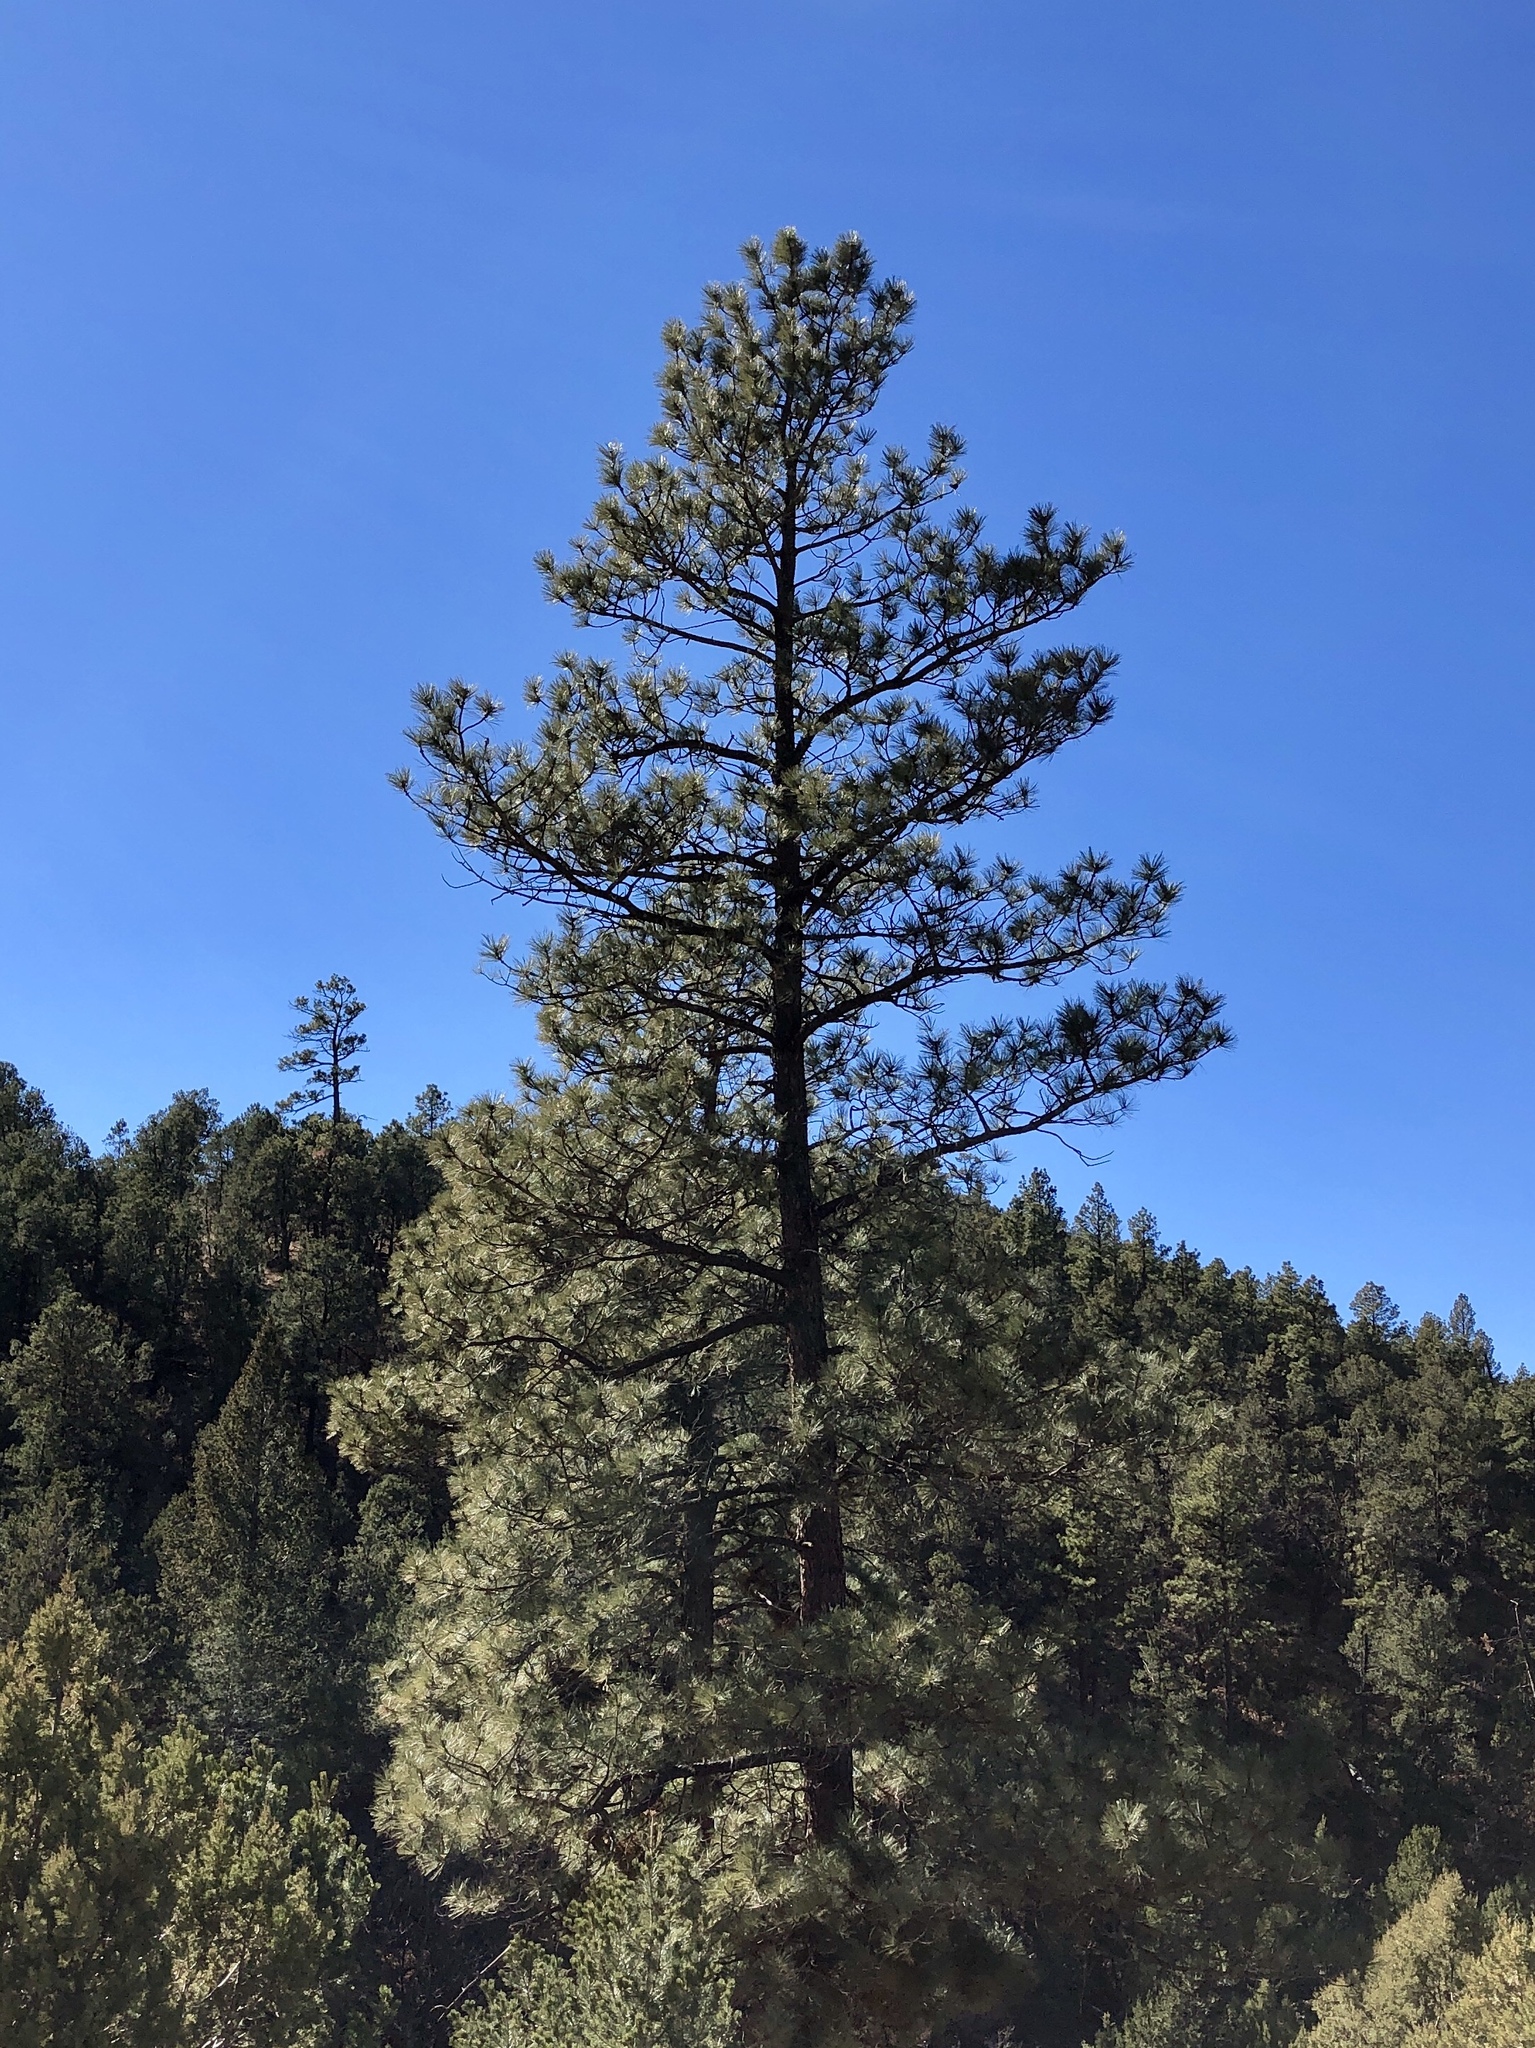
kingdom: Plantae
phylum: Tracheophyta
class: Pinopsida
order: Pinales
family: Pinaceae
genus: Pinus
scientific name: Pinus ponderosa
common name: Western yellow-pine
